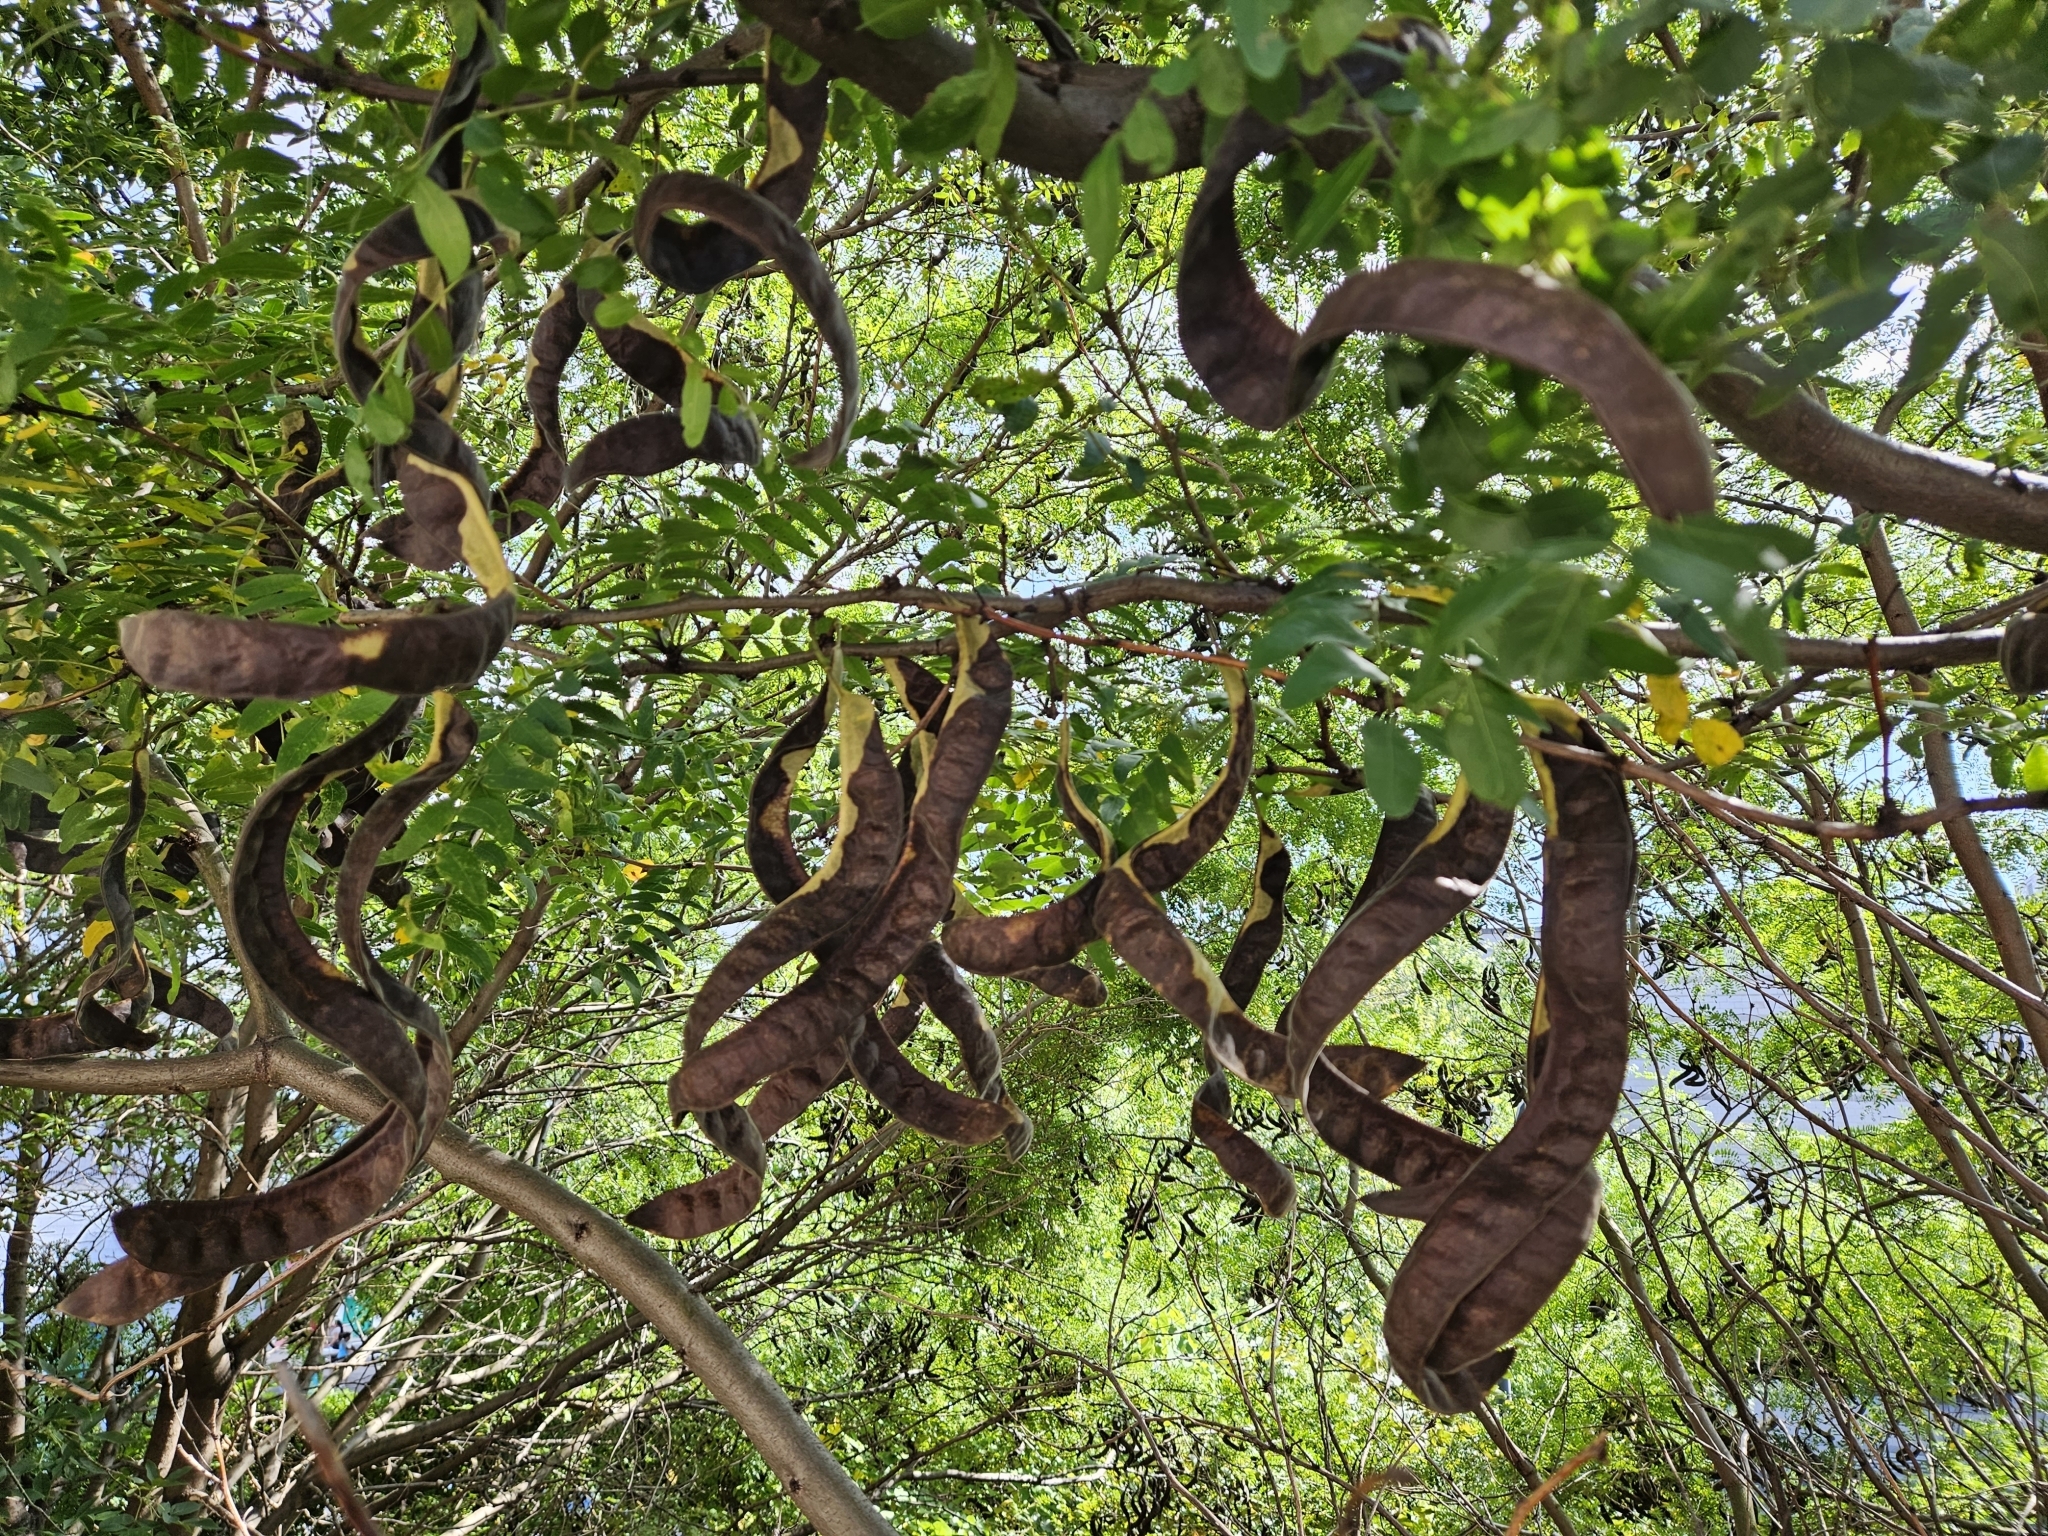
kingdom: Plantae
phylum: Tracheophyta
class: Magnoliopsida
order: Fabales
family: Fabaceae
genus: Gleditsia
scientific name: Gleditsia triacanthos
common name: Common honeylocust
